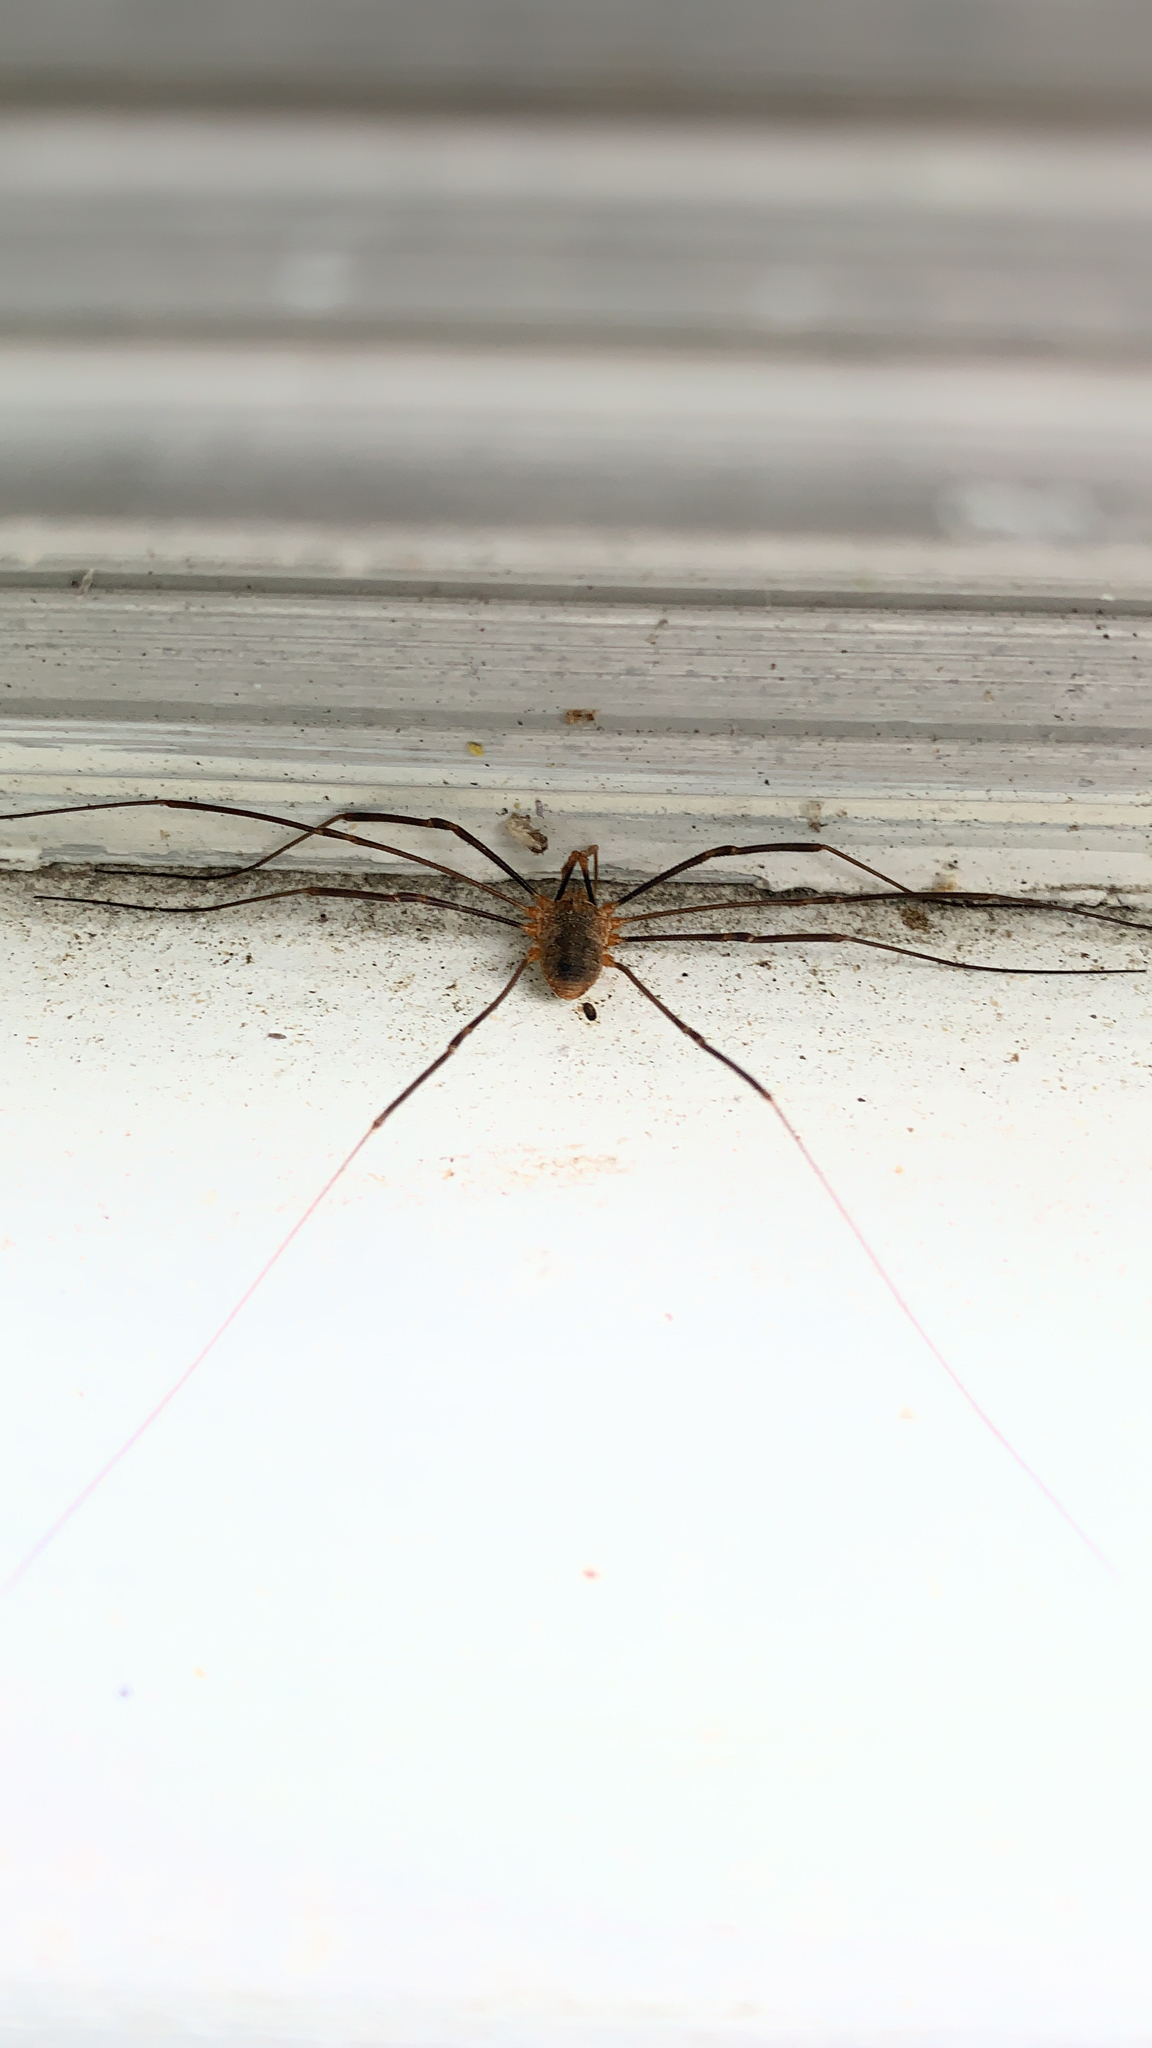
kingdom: Animalia
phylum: Arthropoda
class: Arachnida
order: Opiliones
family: Phalangiidae
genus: Phalangium
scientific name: Phalangium opilio
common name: Daddy longleg
